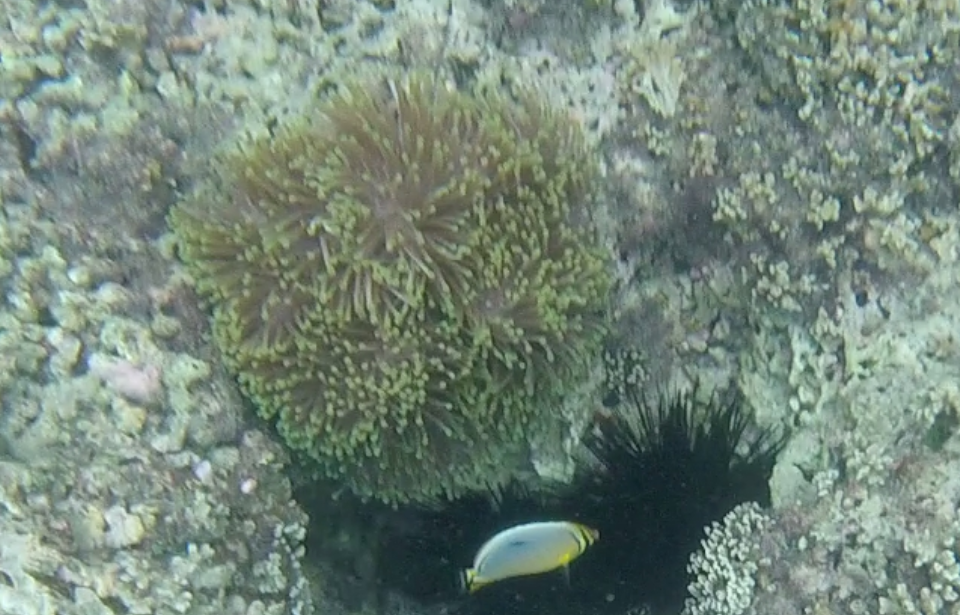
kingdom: Animalia
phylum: Cnidaria
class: Anthozoa
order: Actiniaria
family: Stichodactylidae
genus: Radianthus
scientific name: Radianthus magnifica
